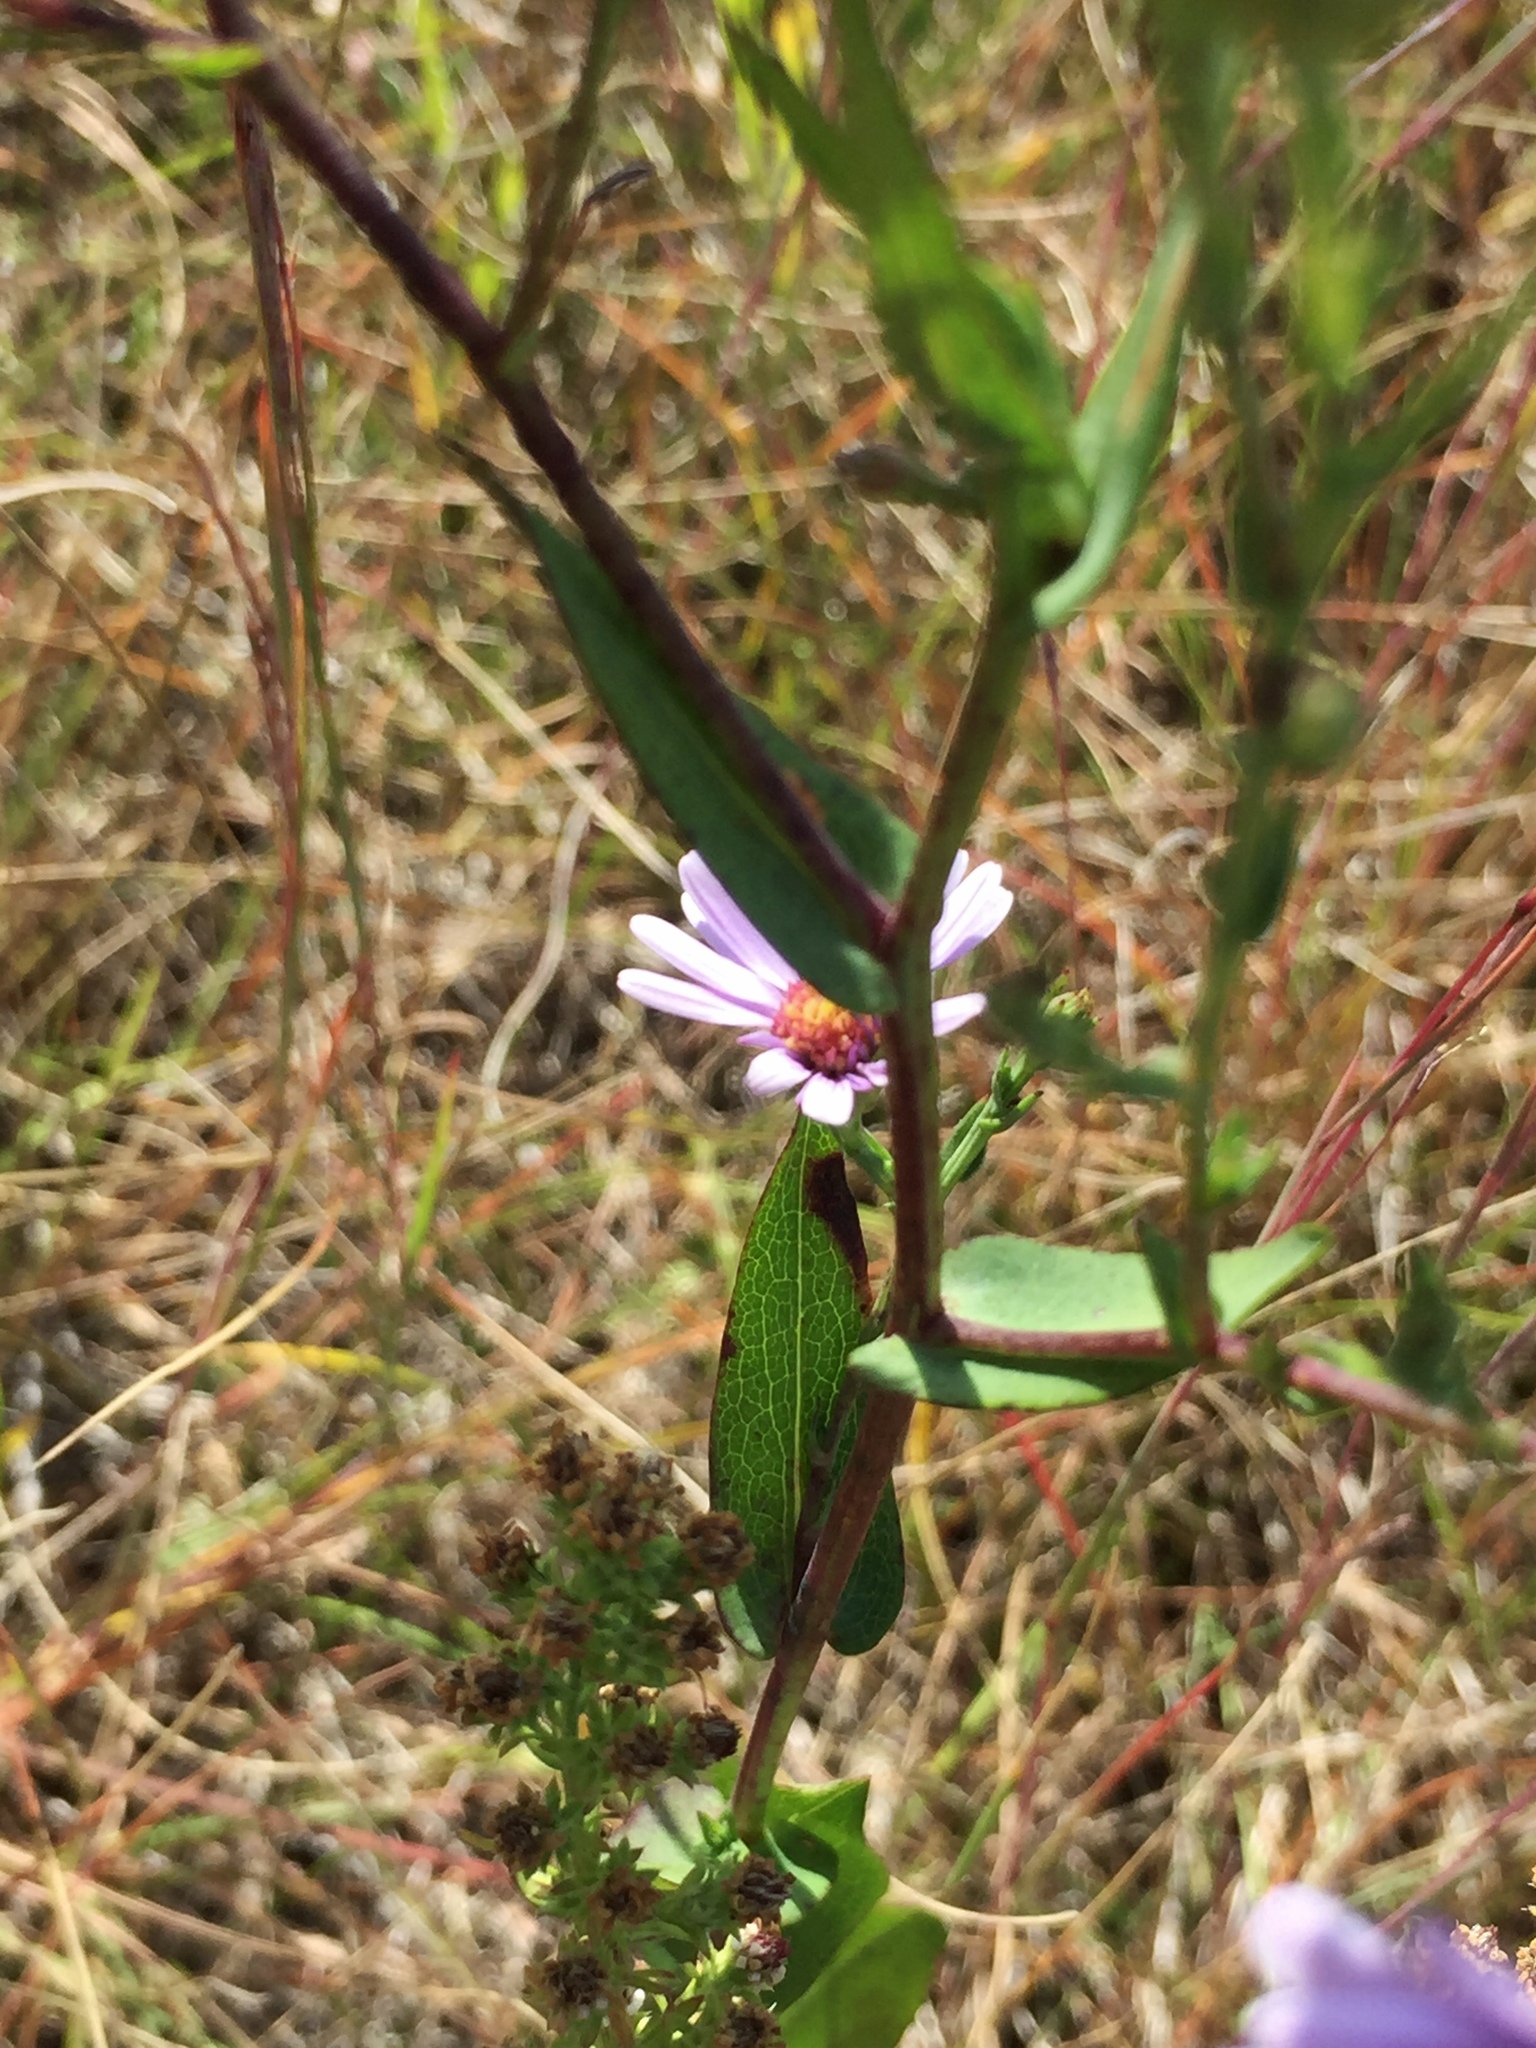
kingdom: Plantae
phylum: Tracheophyta
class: Magnoliopsida
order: Asterales
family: Asteraceae
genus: Symphyotrichum
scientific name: Symphyotrichum laeve
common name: Glaucous aster
